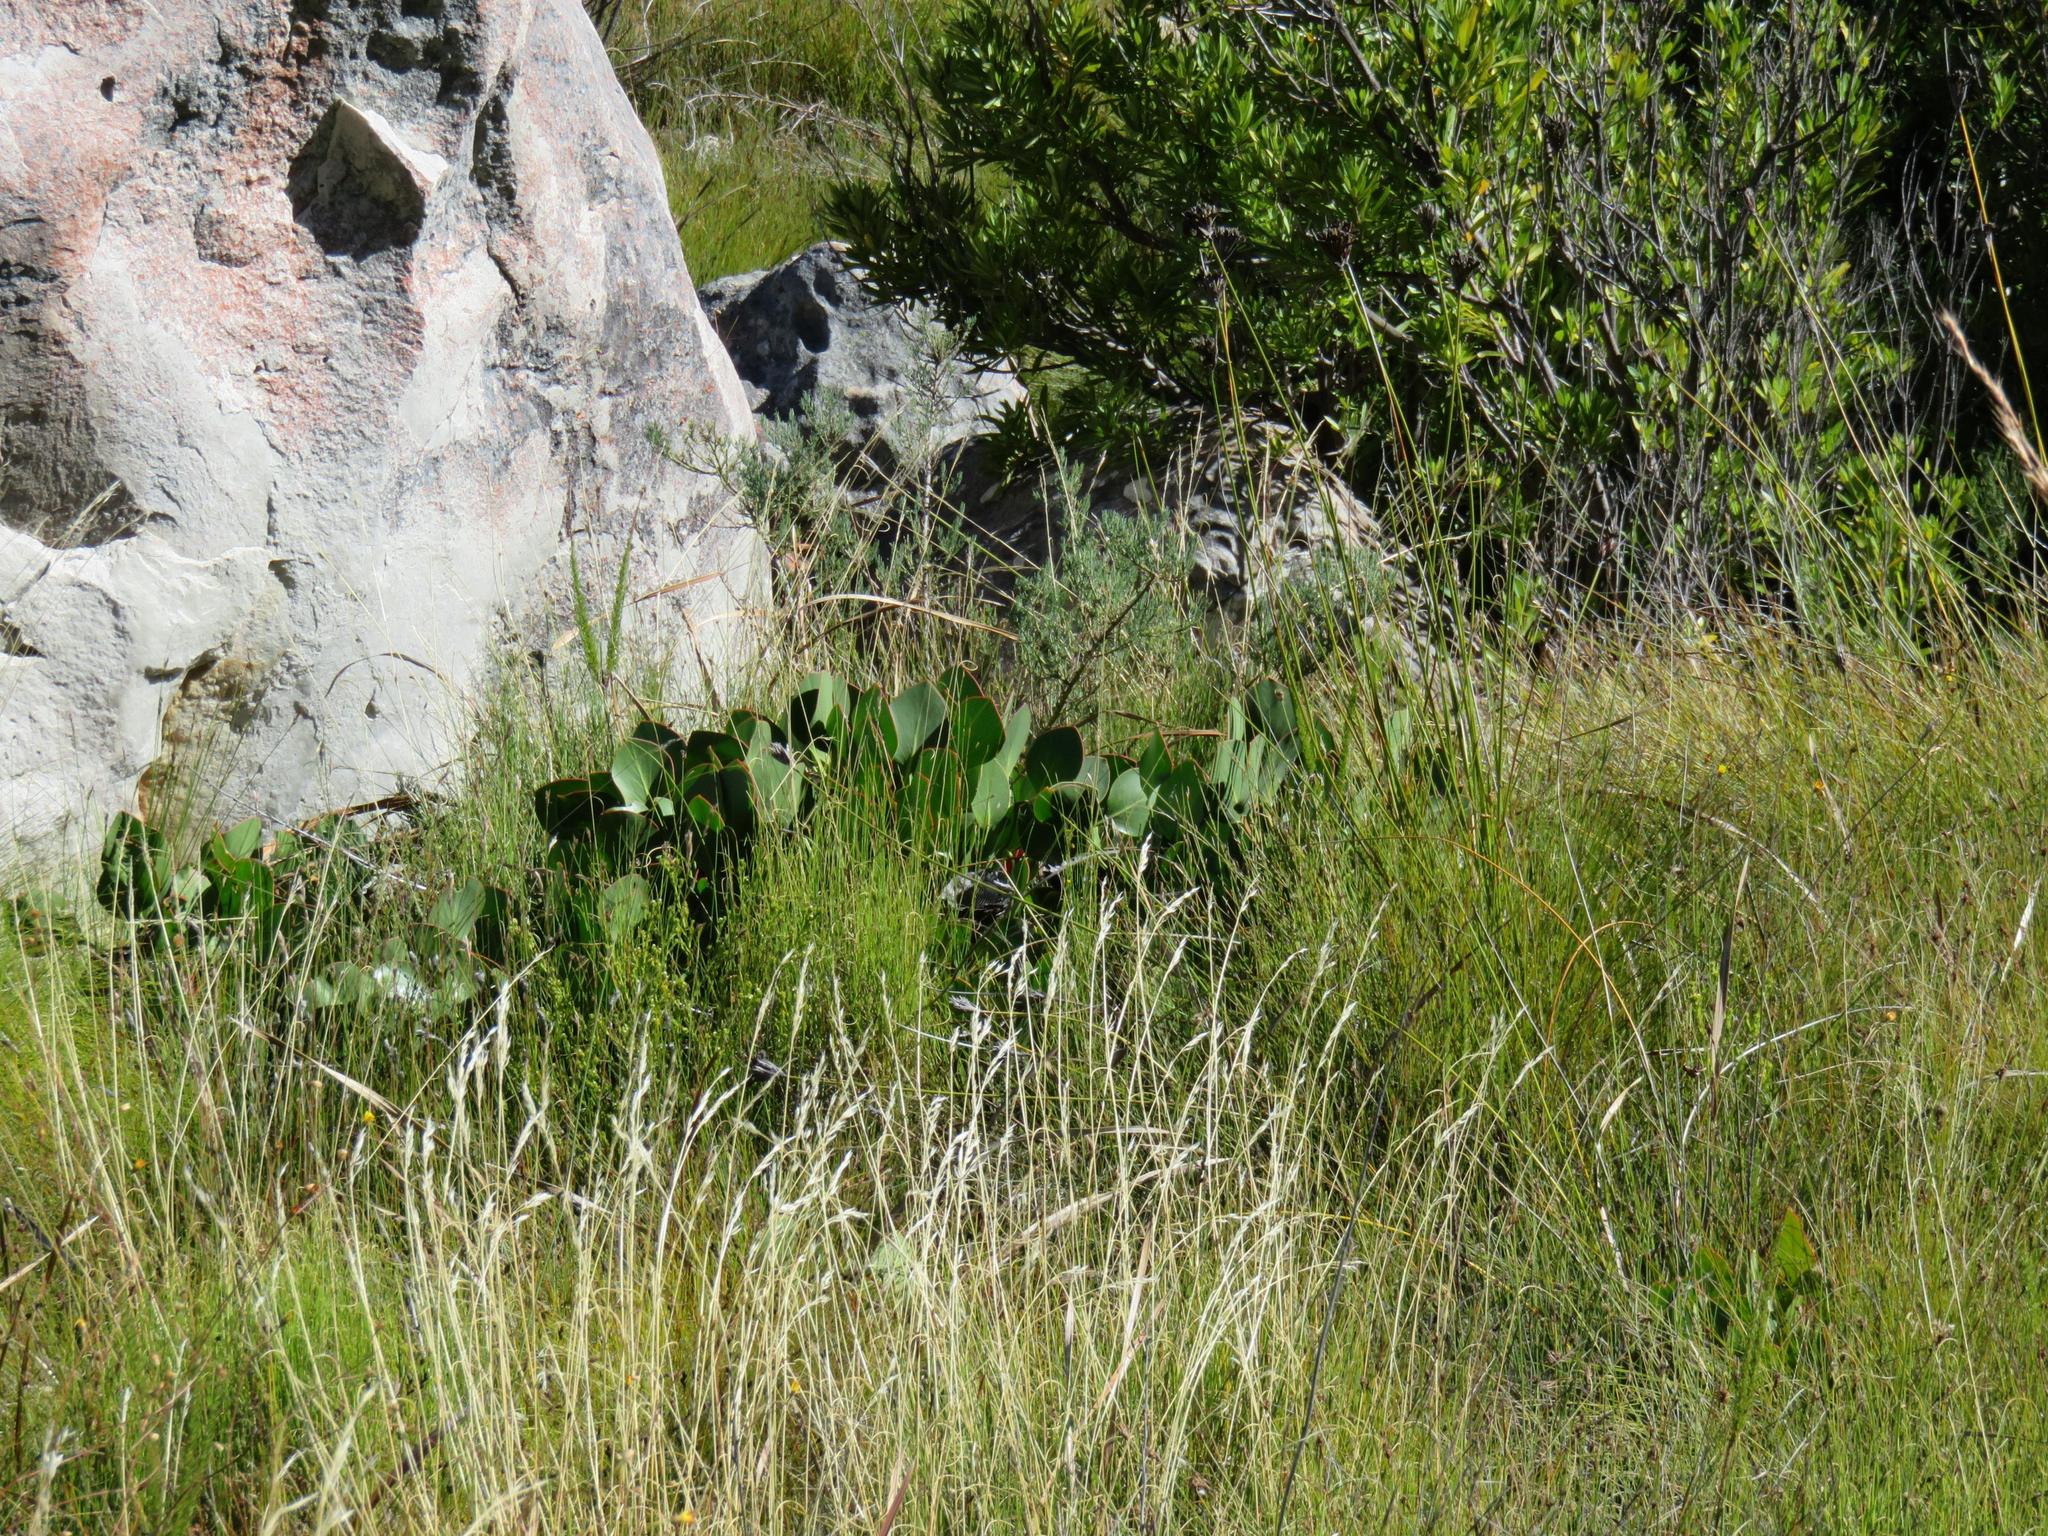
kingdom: Plantae
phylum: Tracheophyta
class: Magnoliopsida
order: Proteales
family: Proteaceae
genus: Protea
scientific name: Protea cynaroides
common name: King protea
